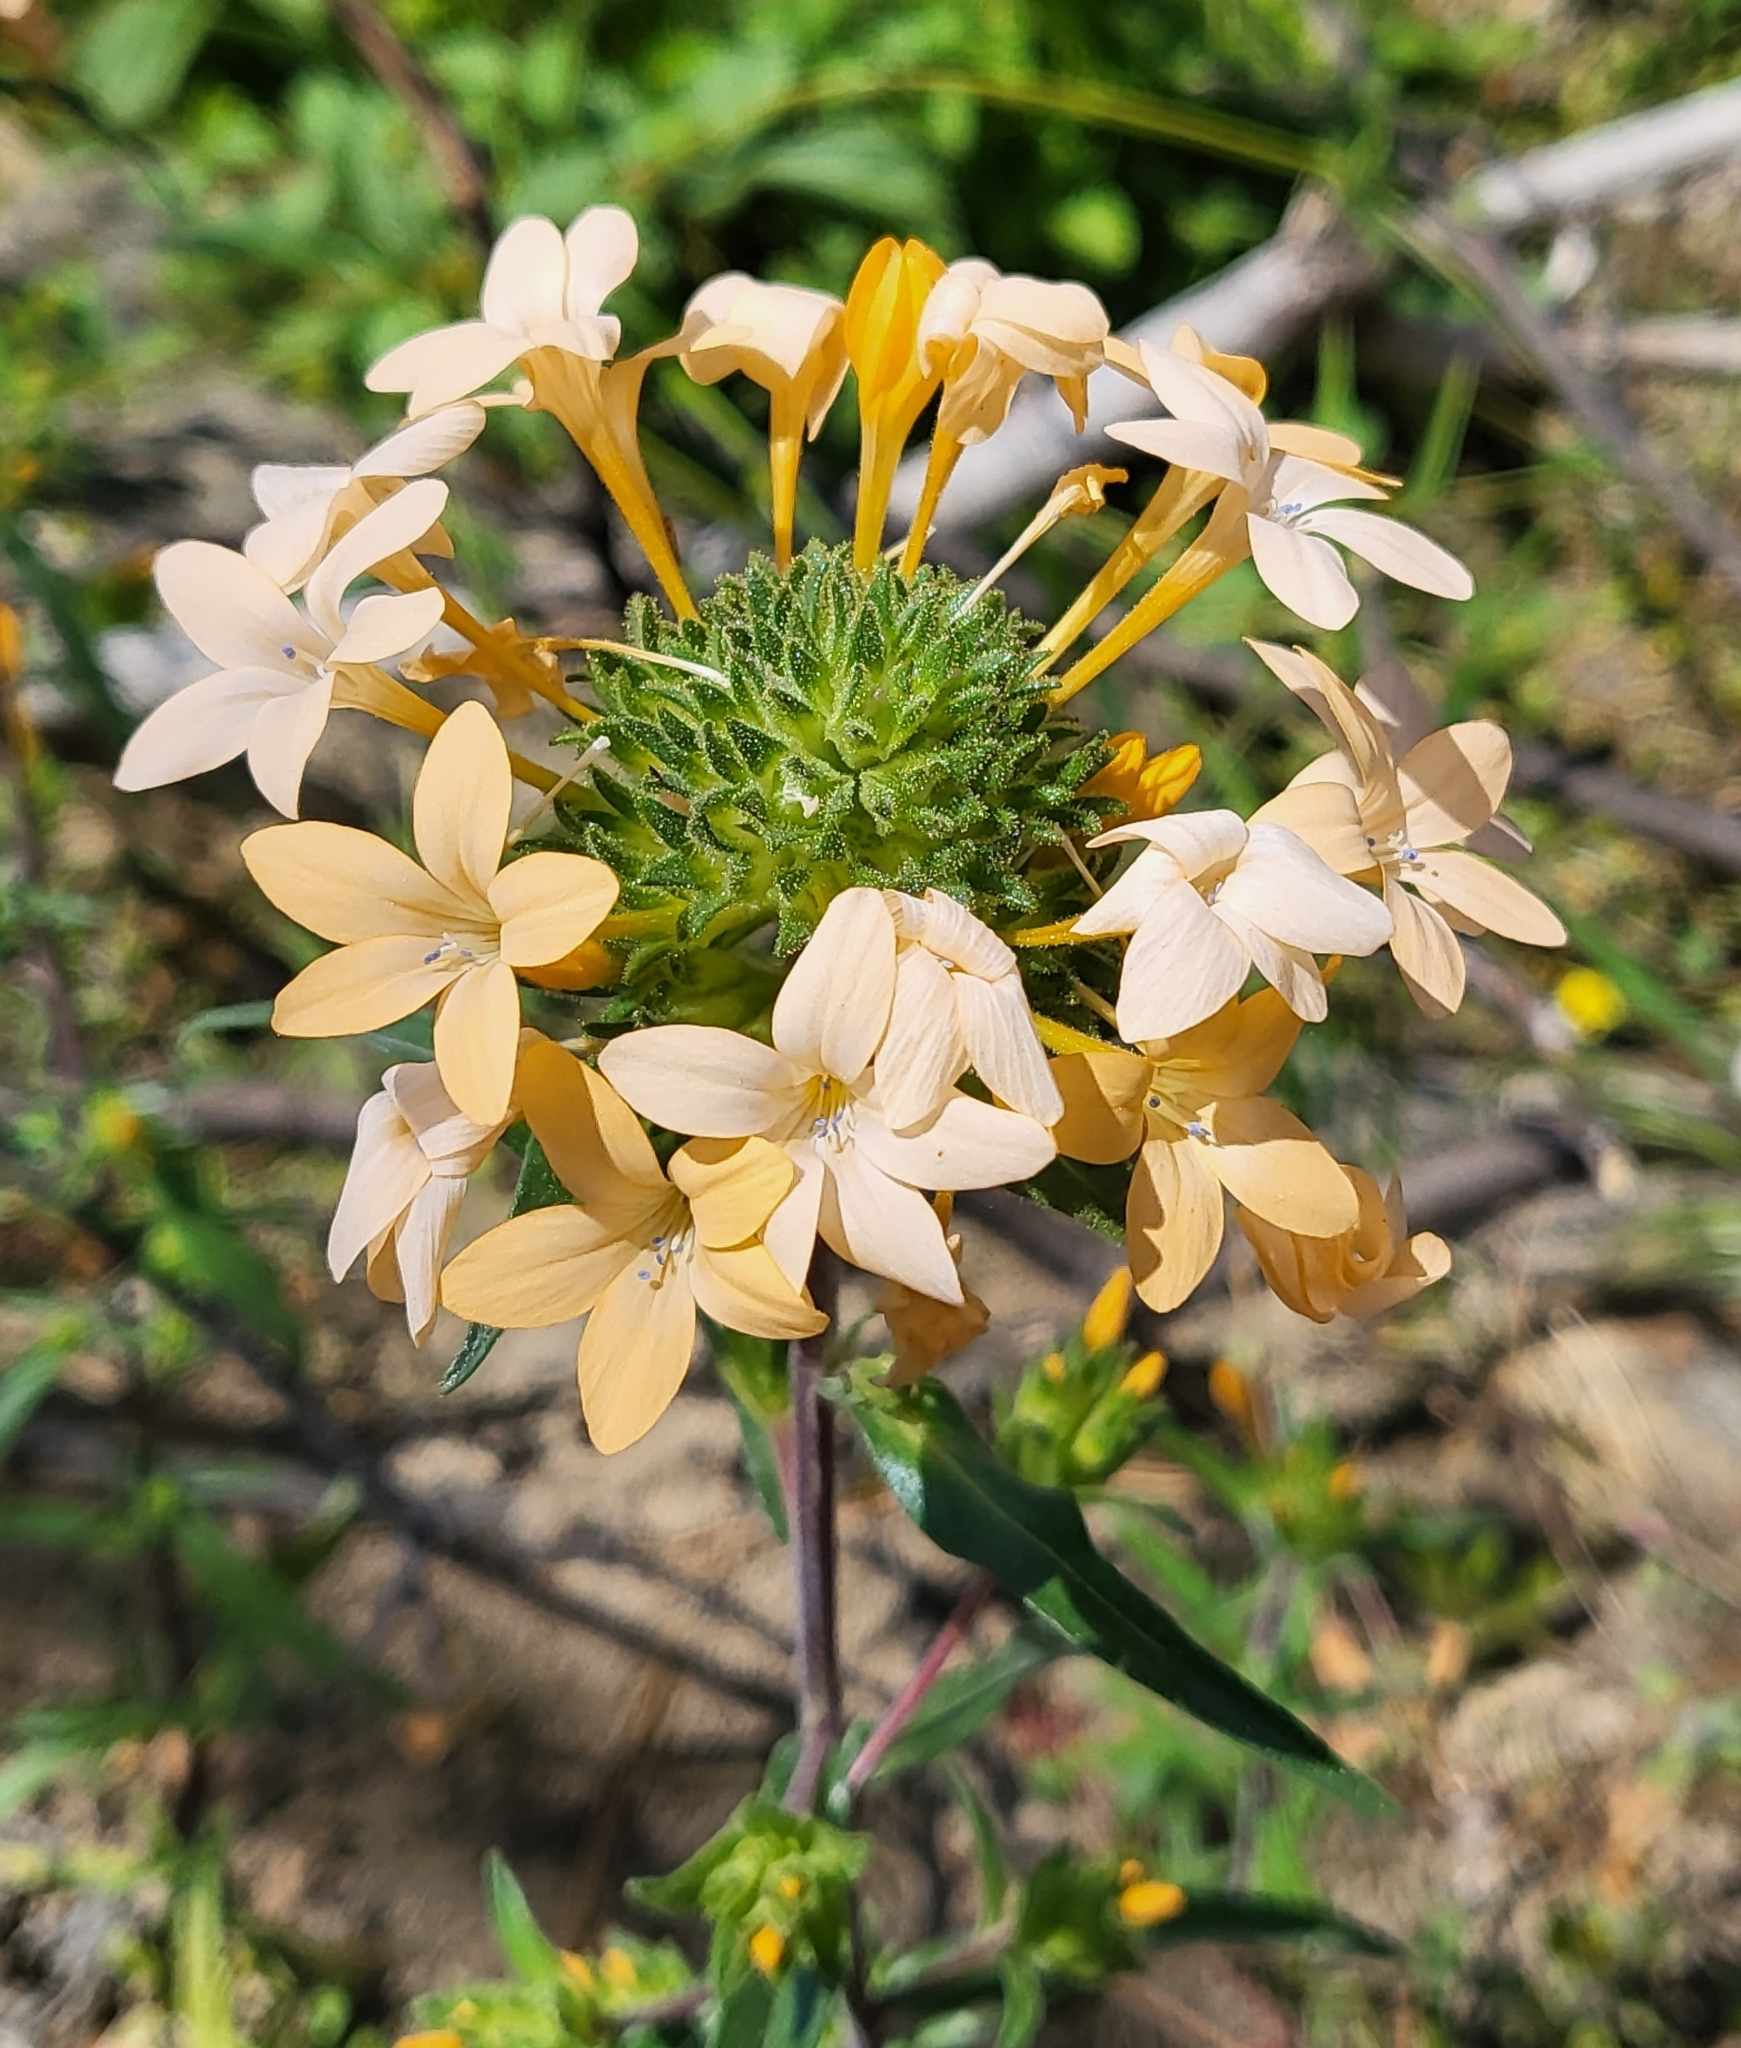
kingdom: Plantae
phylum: Tracheophyta
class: Magnoliopsida
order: Ericales
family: Polemoniaceae
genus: Collomia
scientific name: Collomia grandiflora
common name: California strawflower
